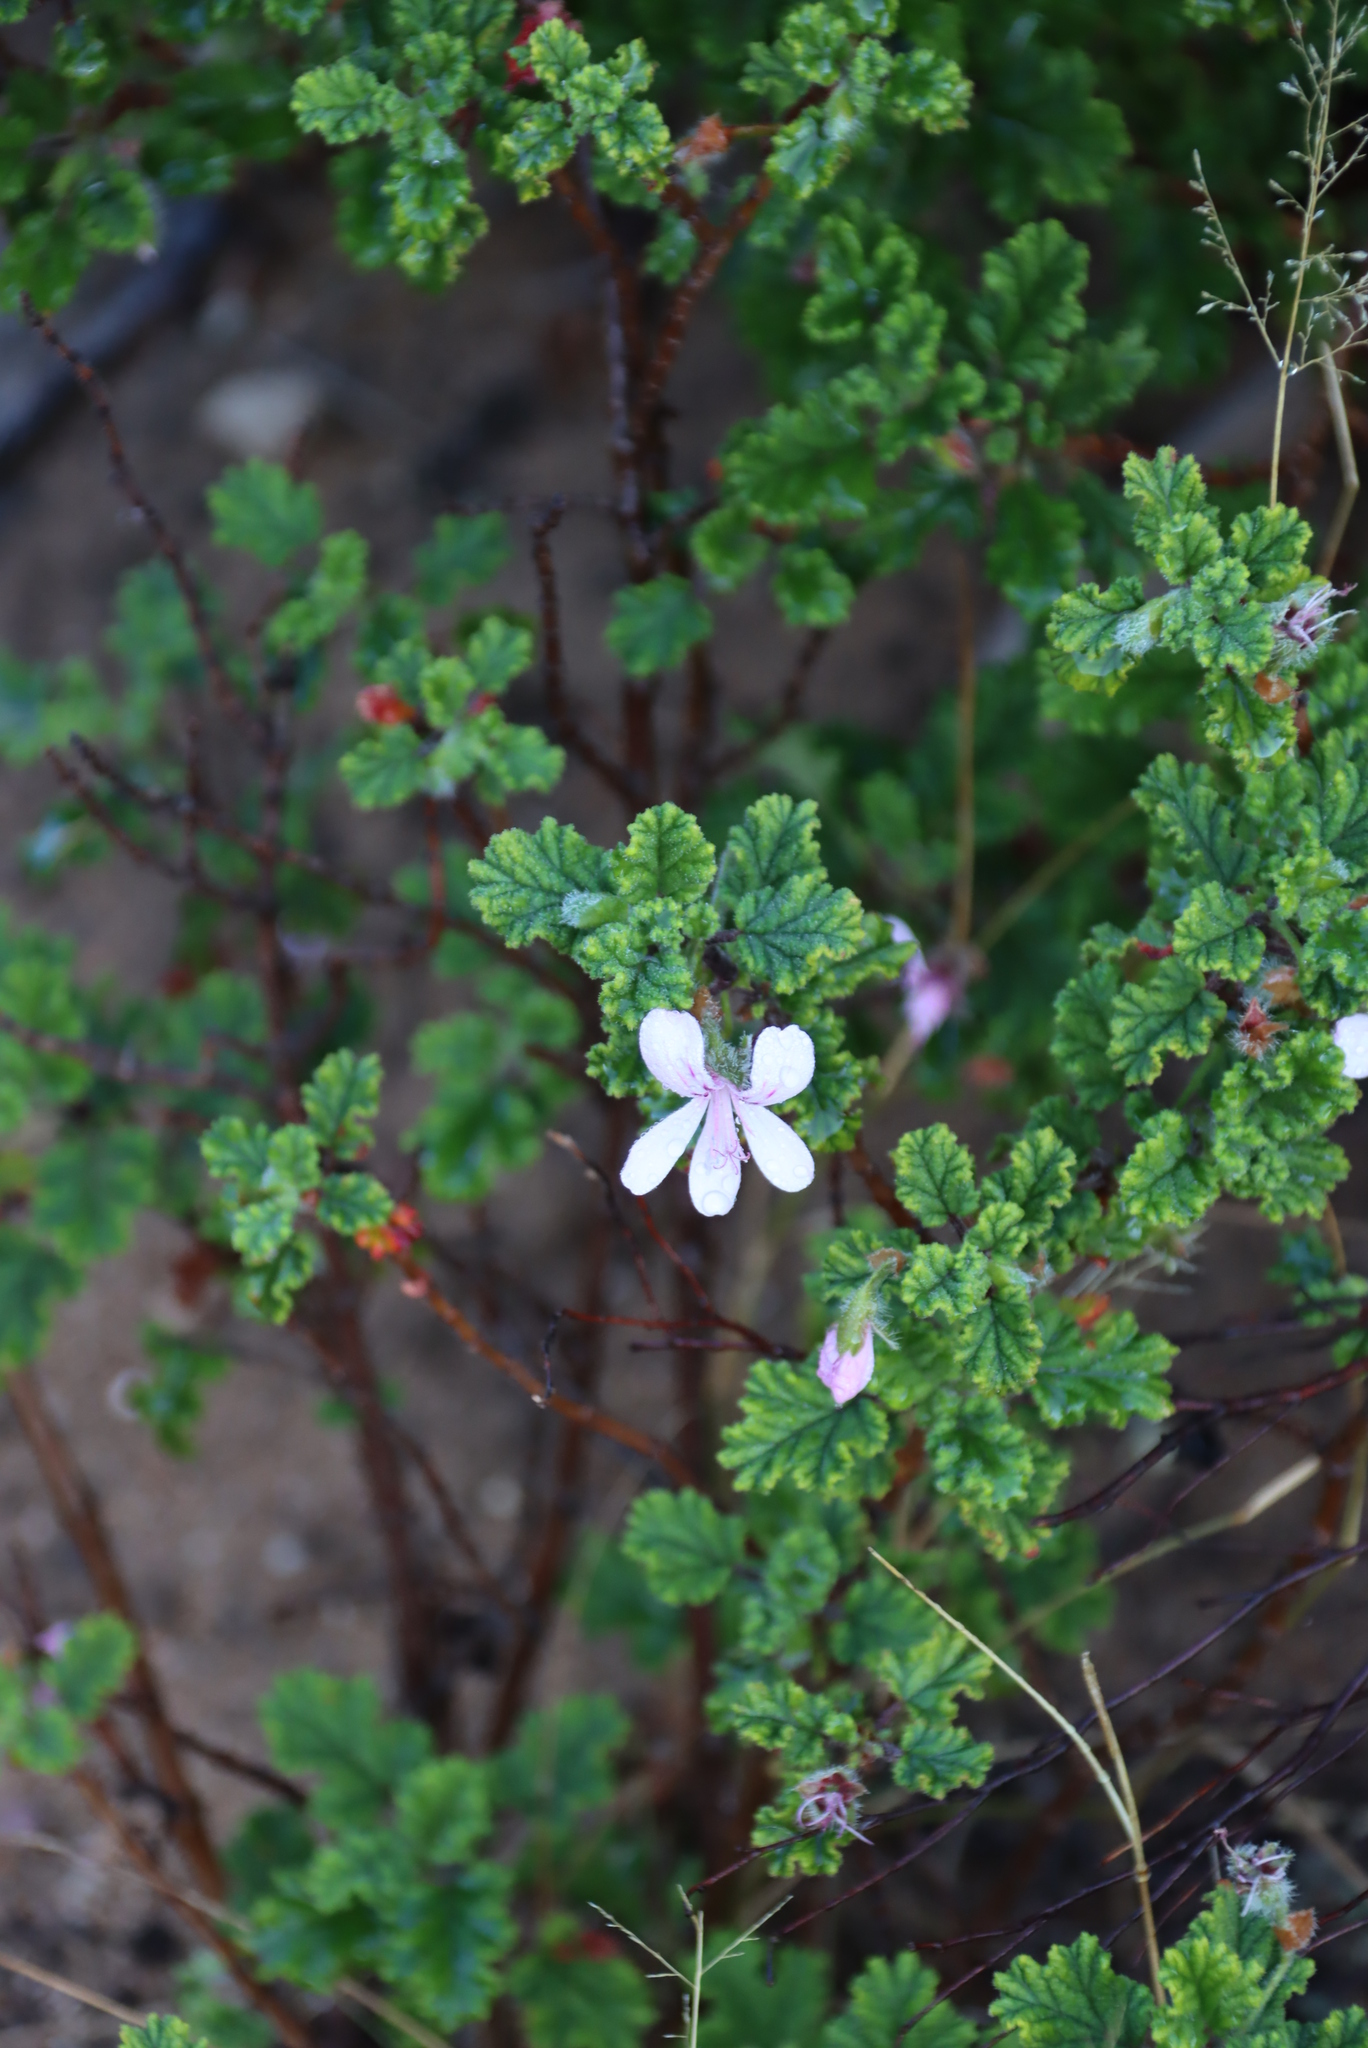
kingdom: Plantae
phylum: Tracheophyta
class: Magnoliopsida
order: Geraniales
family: Geraniaceae
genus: Pelargonium
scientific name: Pelargonium panduriforme
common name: Oakleaf garden geranium
